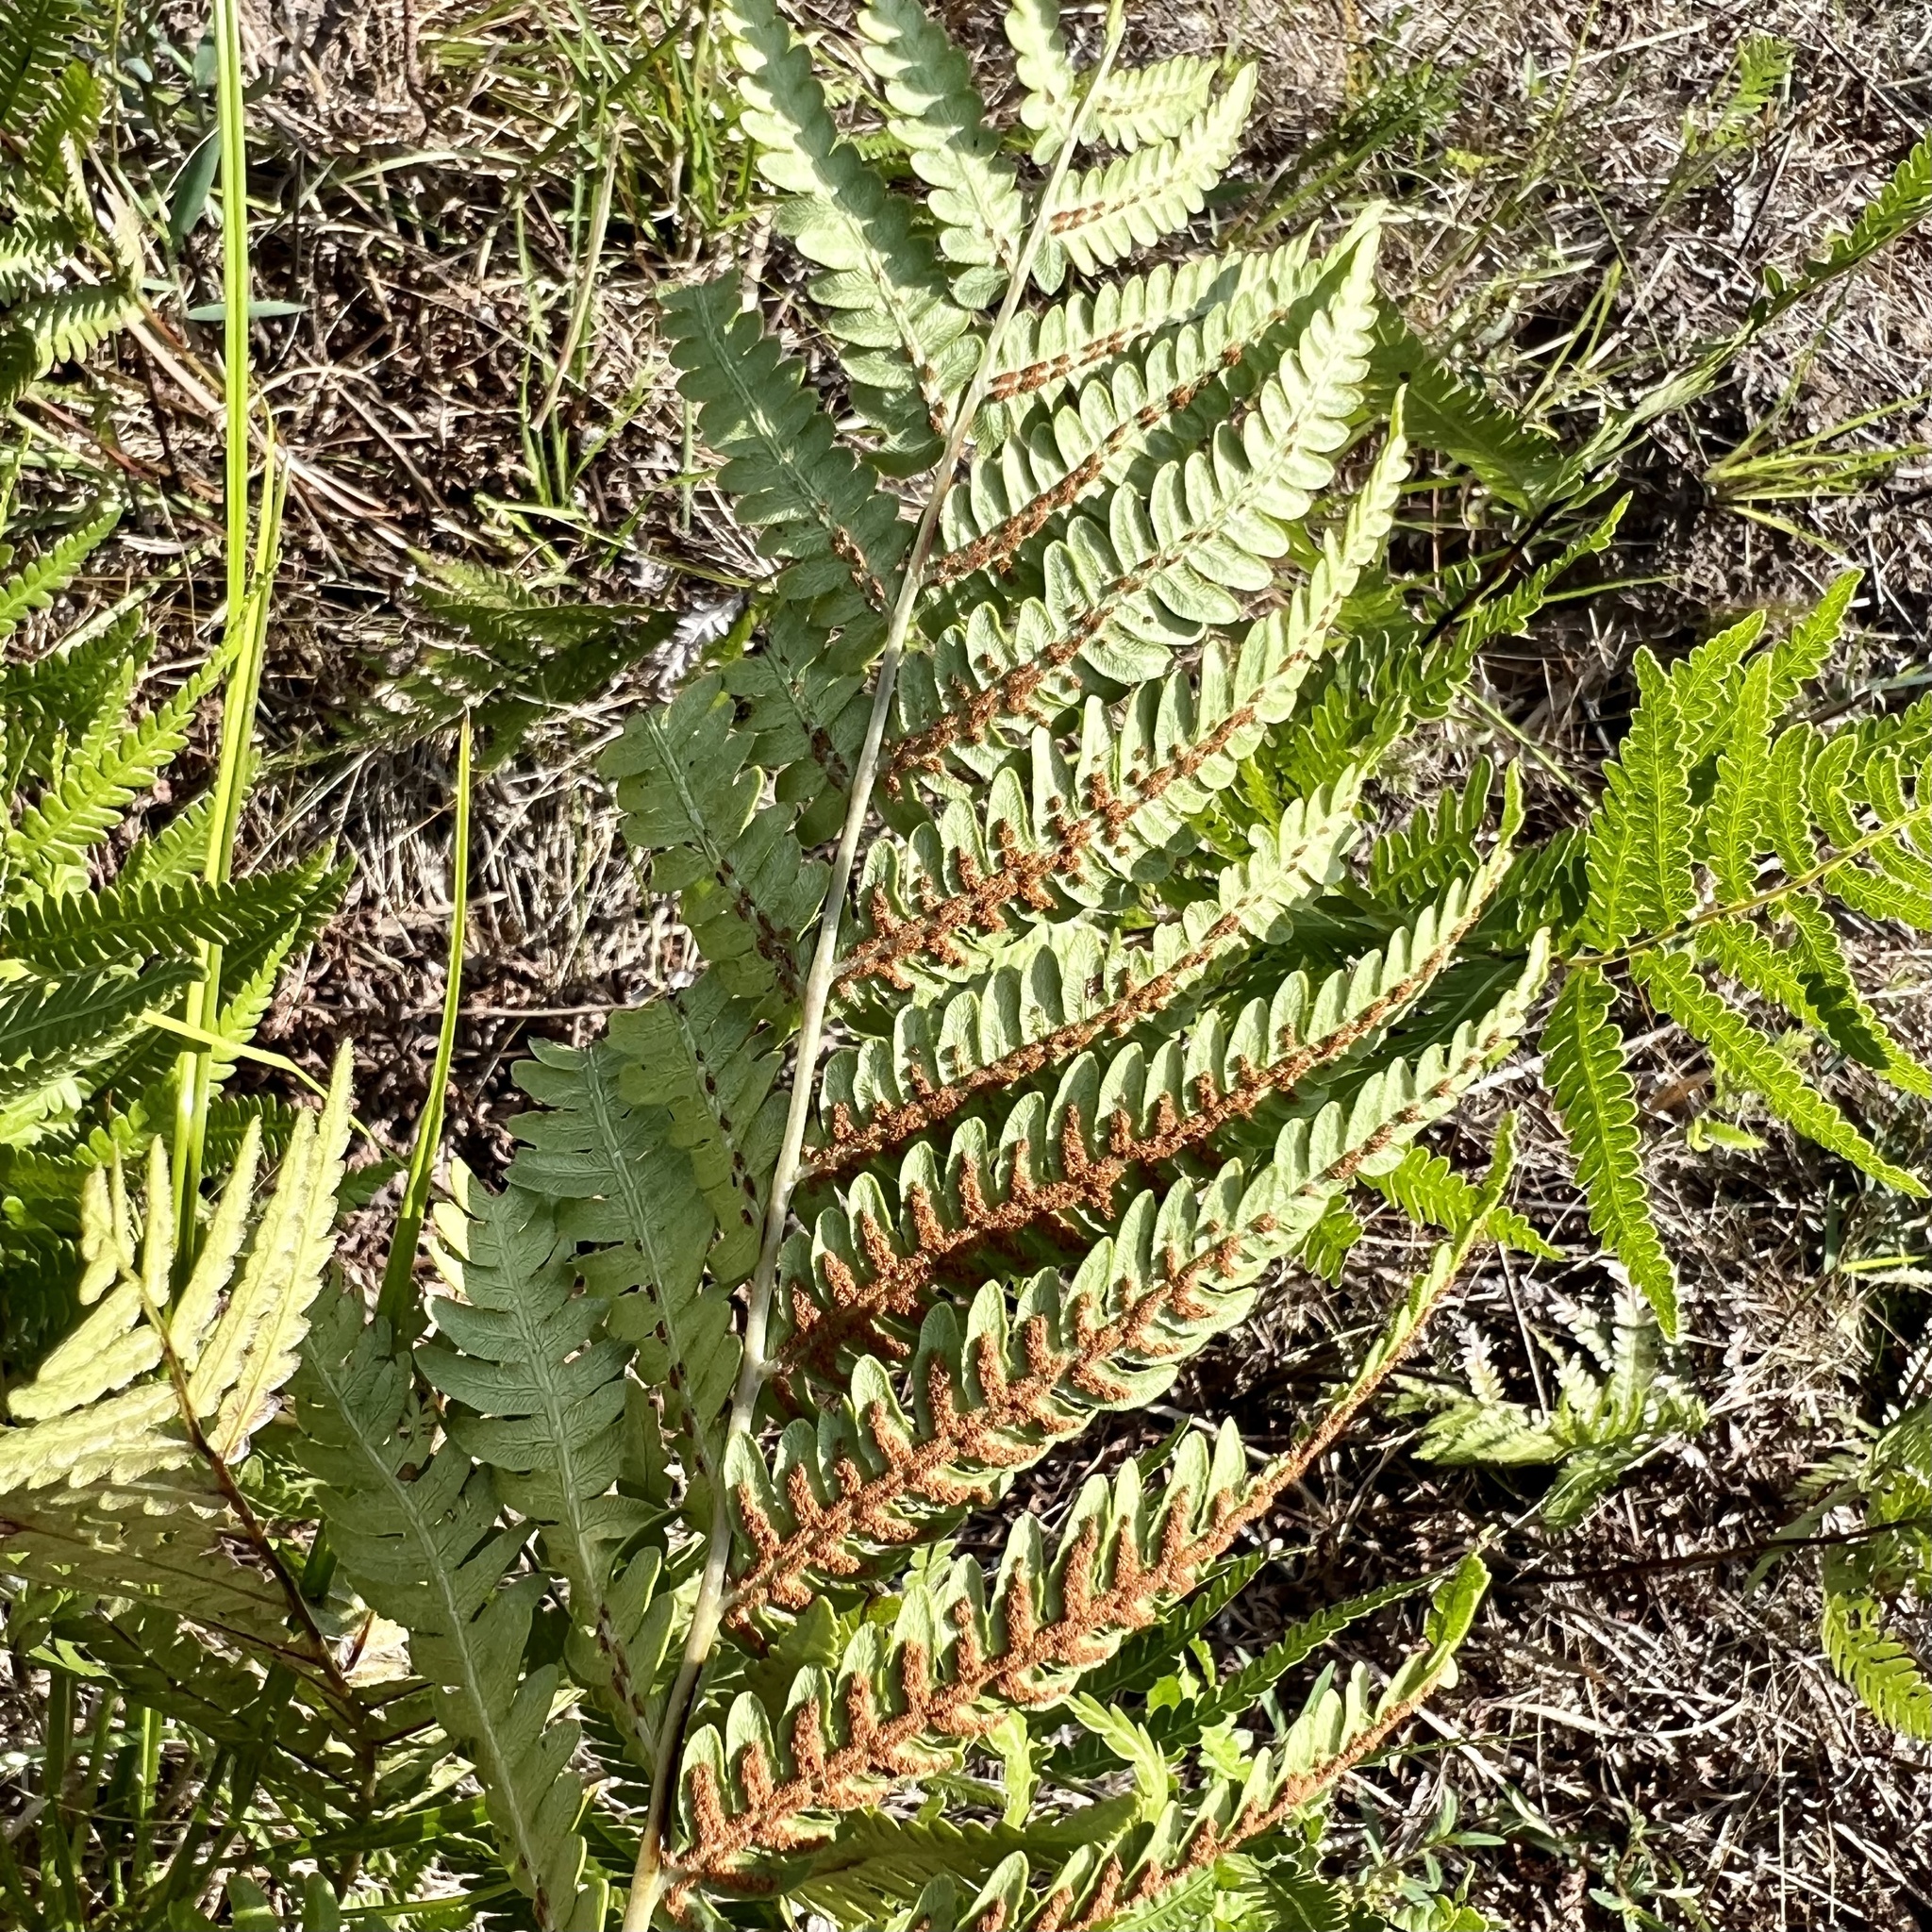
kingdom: Plantae
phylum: Tracheophyta
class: Polypodiopsida
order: Polypodiales
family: Blechnaceae
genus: Anchistea
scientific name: Anchistea virginica
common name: Virginia chain fern
